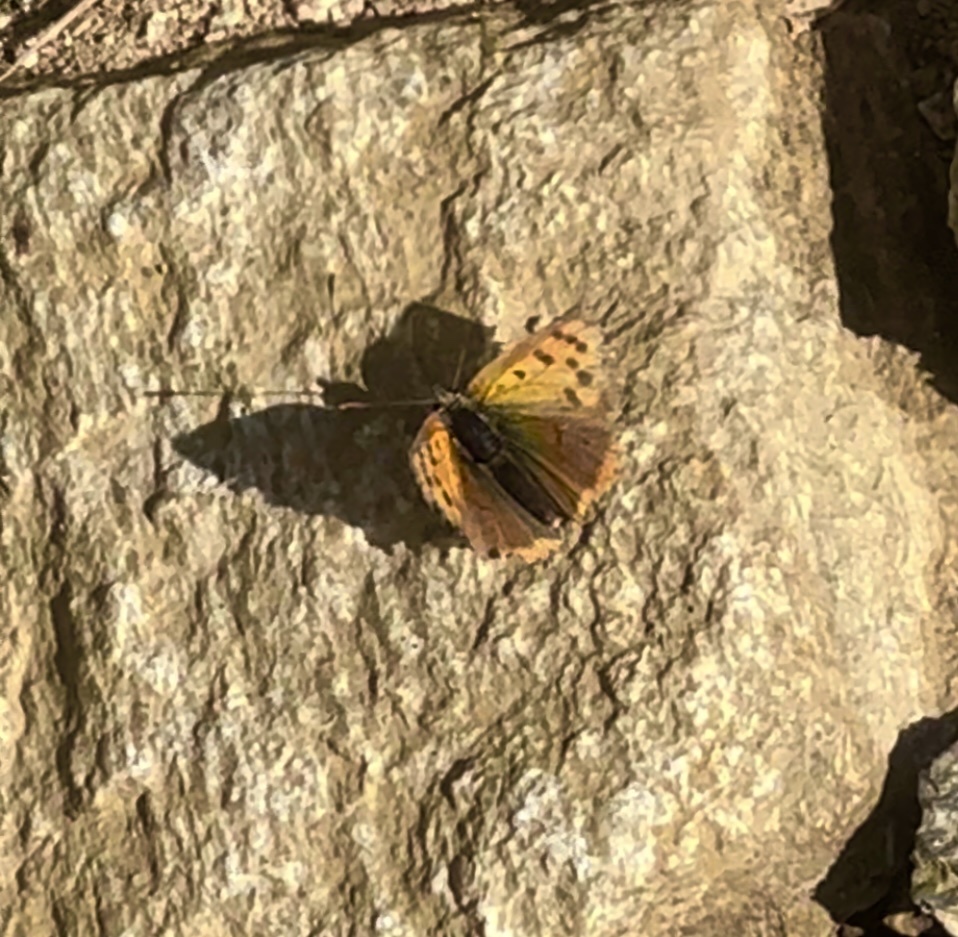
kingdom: Animalia
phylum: Arthropoda
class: Insecta
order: Lepidoptera
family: Lycaenidae
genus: Lycaena
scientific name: Lycaena phlaeas
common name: Small copper
